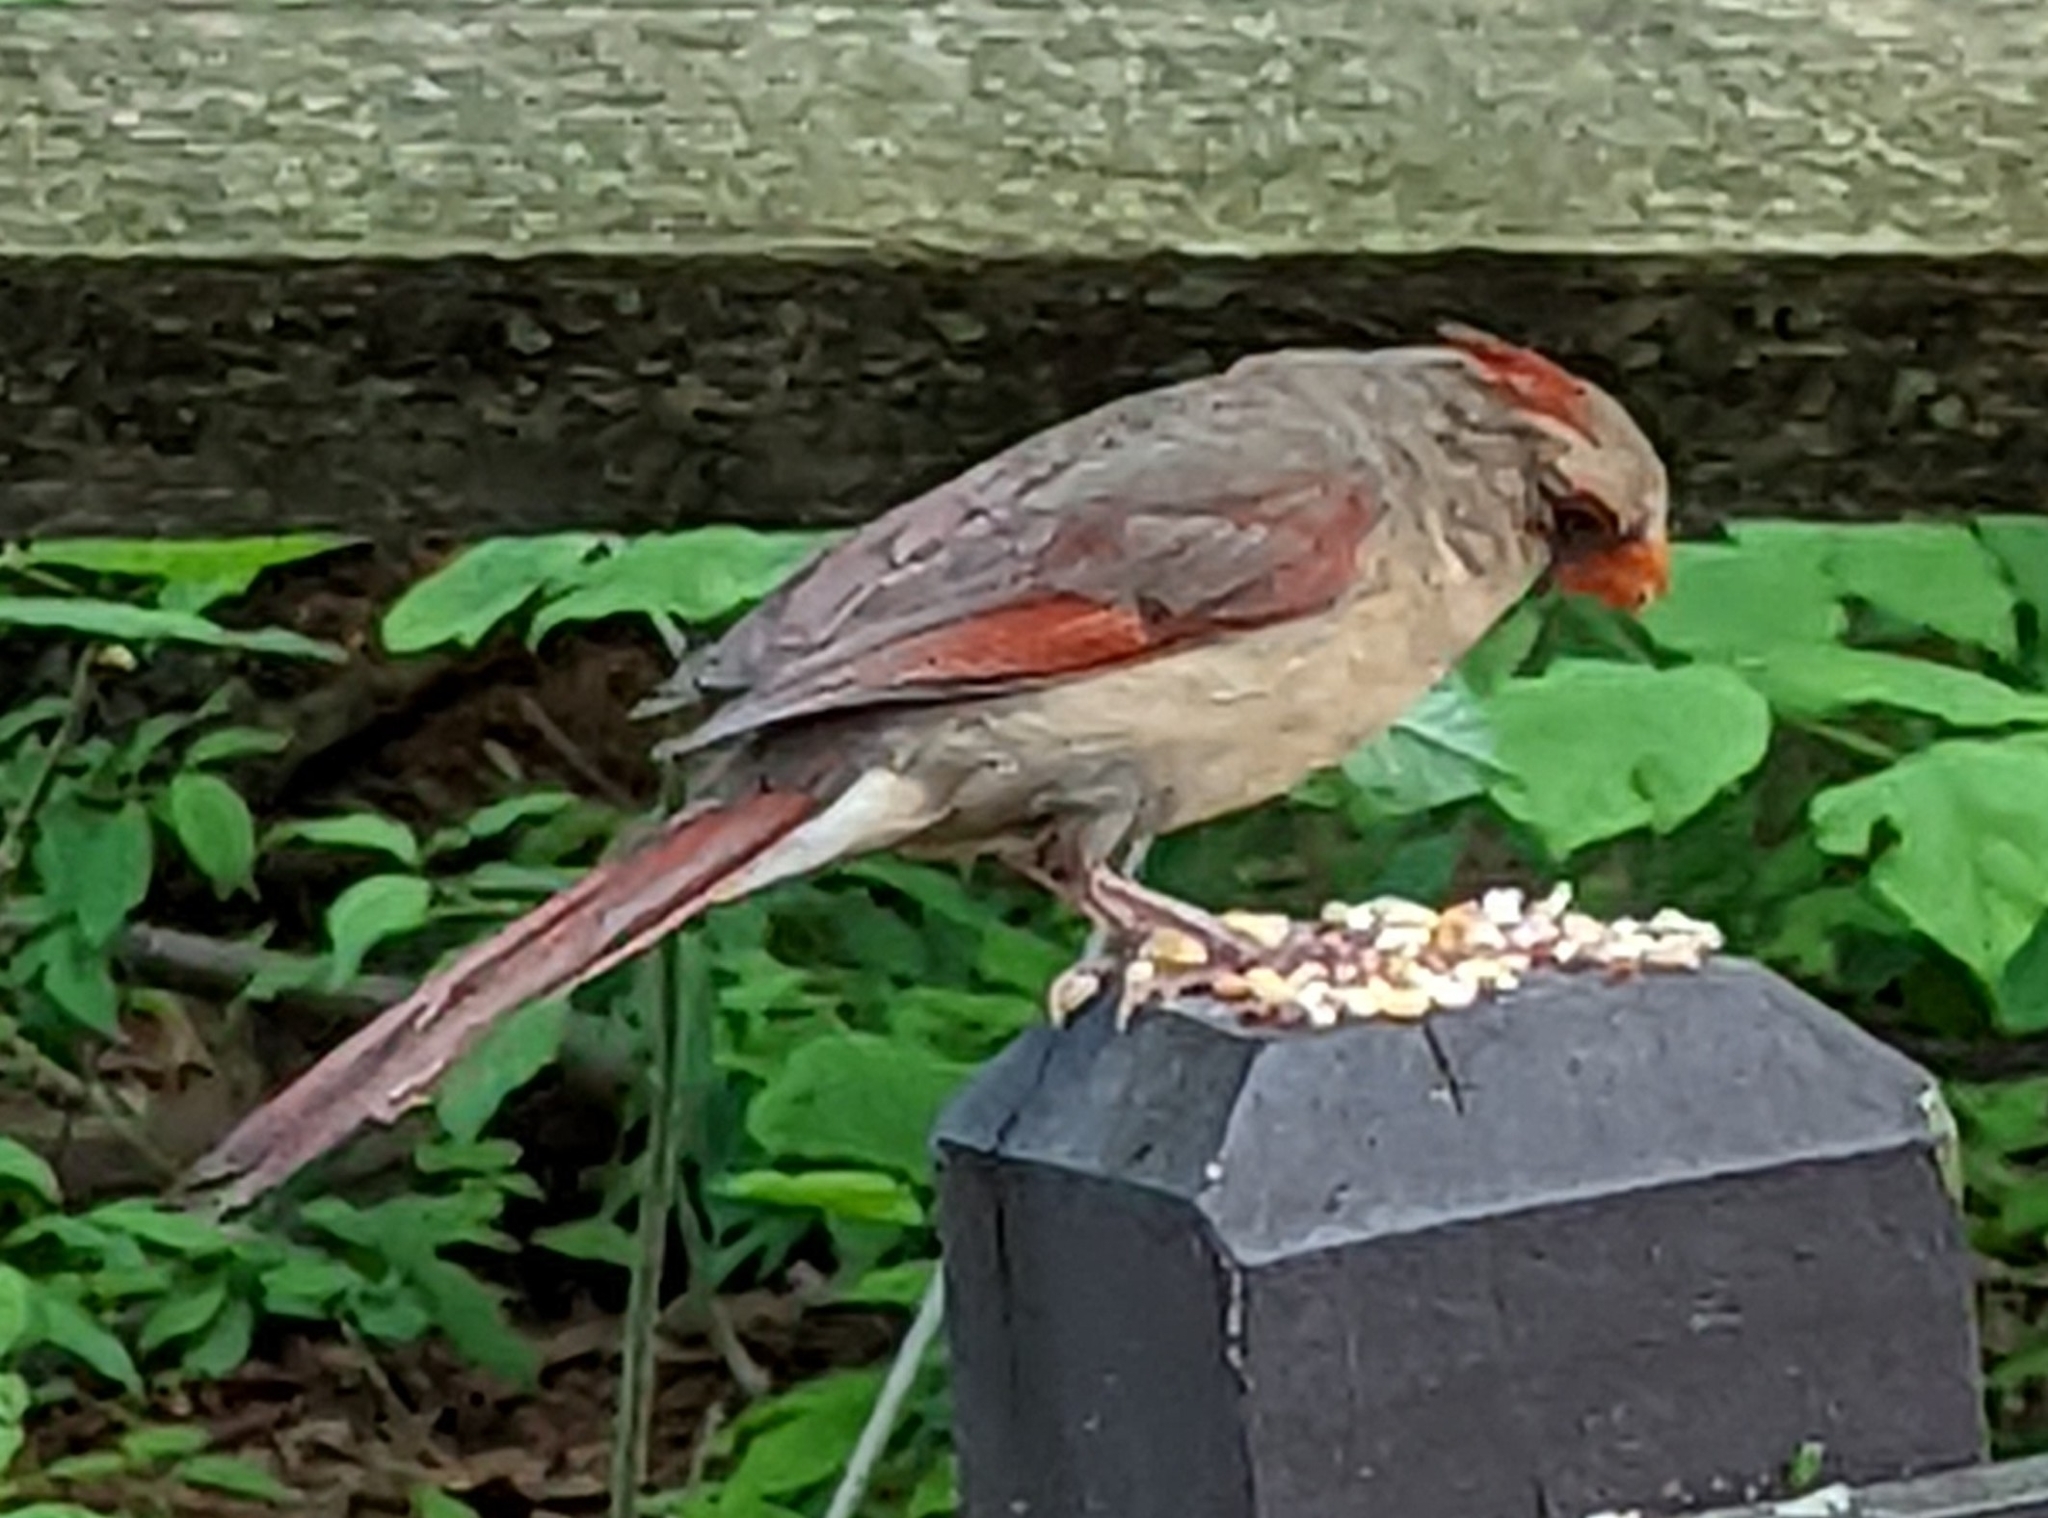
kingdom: Animalia
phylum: Chordata
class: Aves
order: Passeriformes
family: Cardinalidae
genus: Cardinalis
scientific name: Cardinalis cardinalis
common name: Northern cardinal
